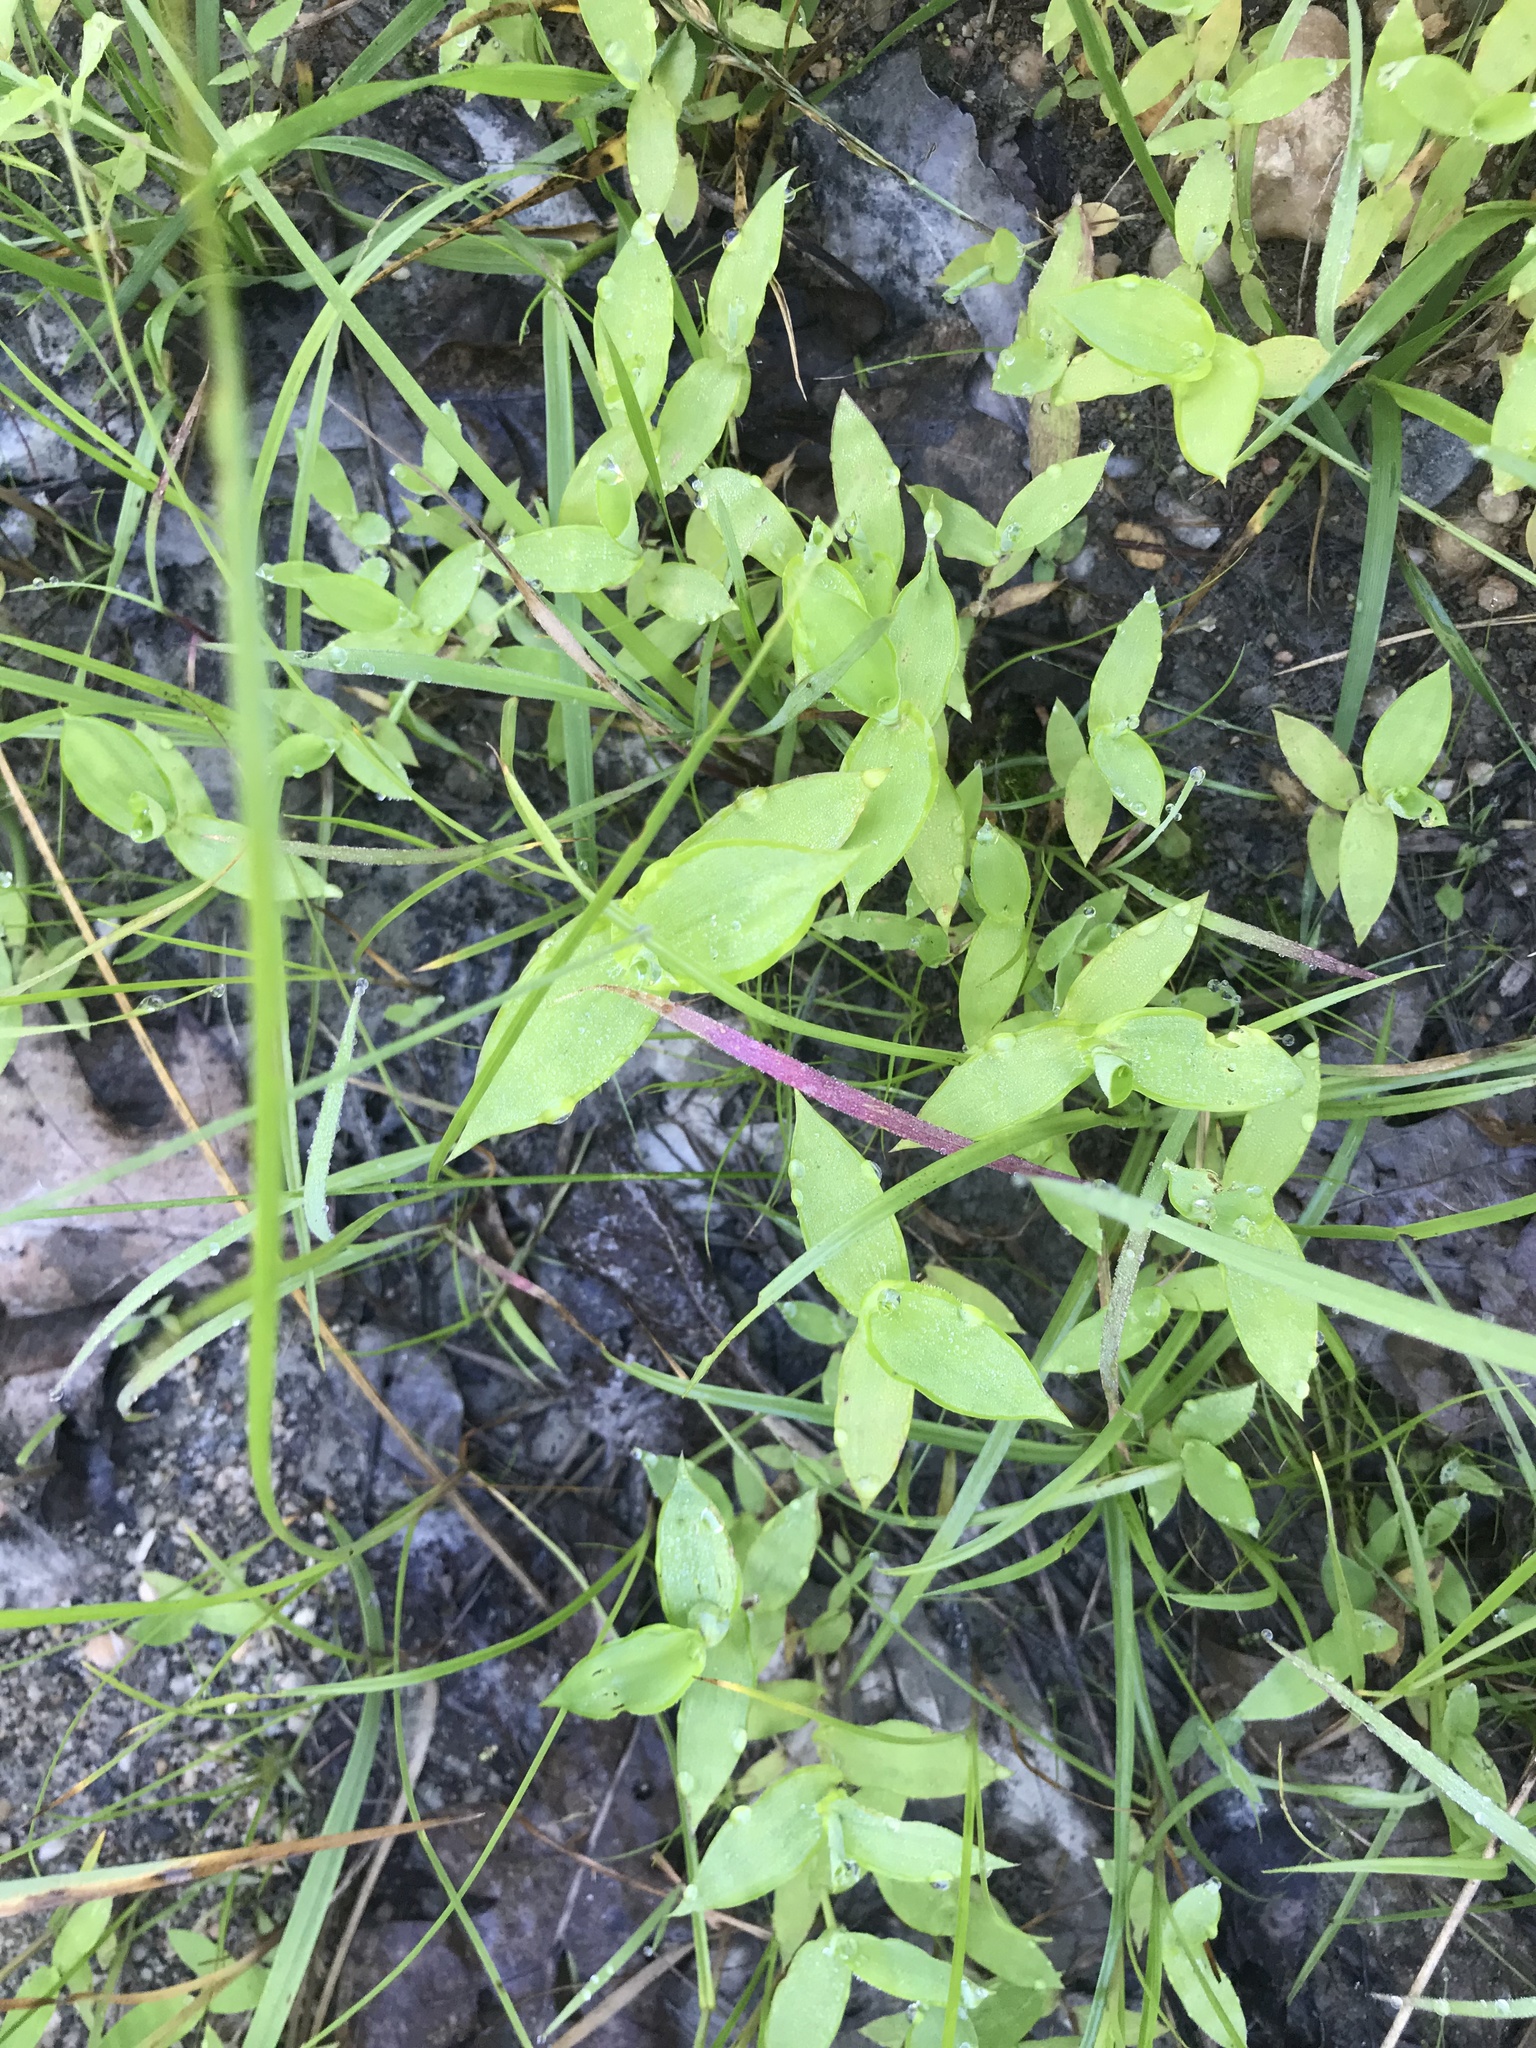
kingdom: Plantae
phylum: Tracheophyta
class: Liliopsida
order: Poales
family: Poaceae
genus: Arthraxon
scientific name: Arthraxon hispidus
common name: Small carpgrass
